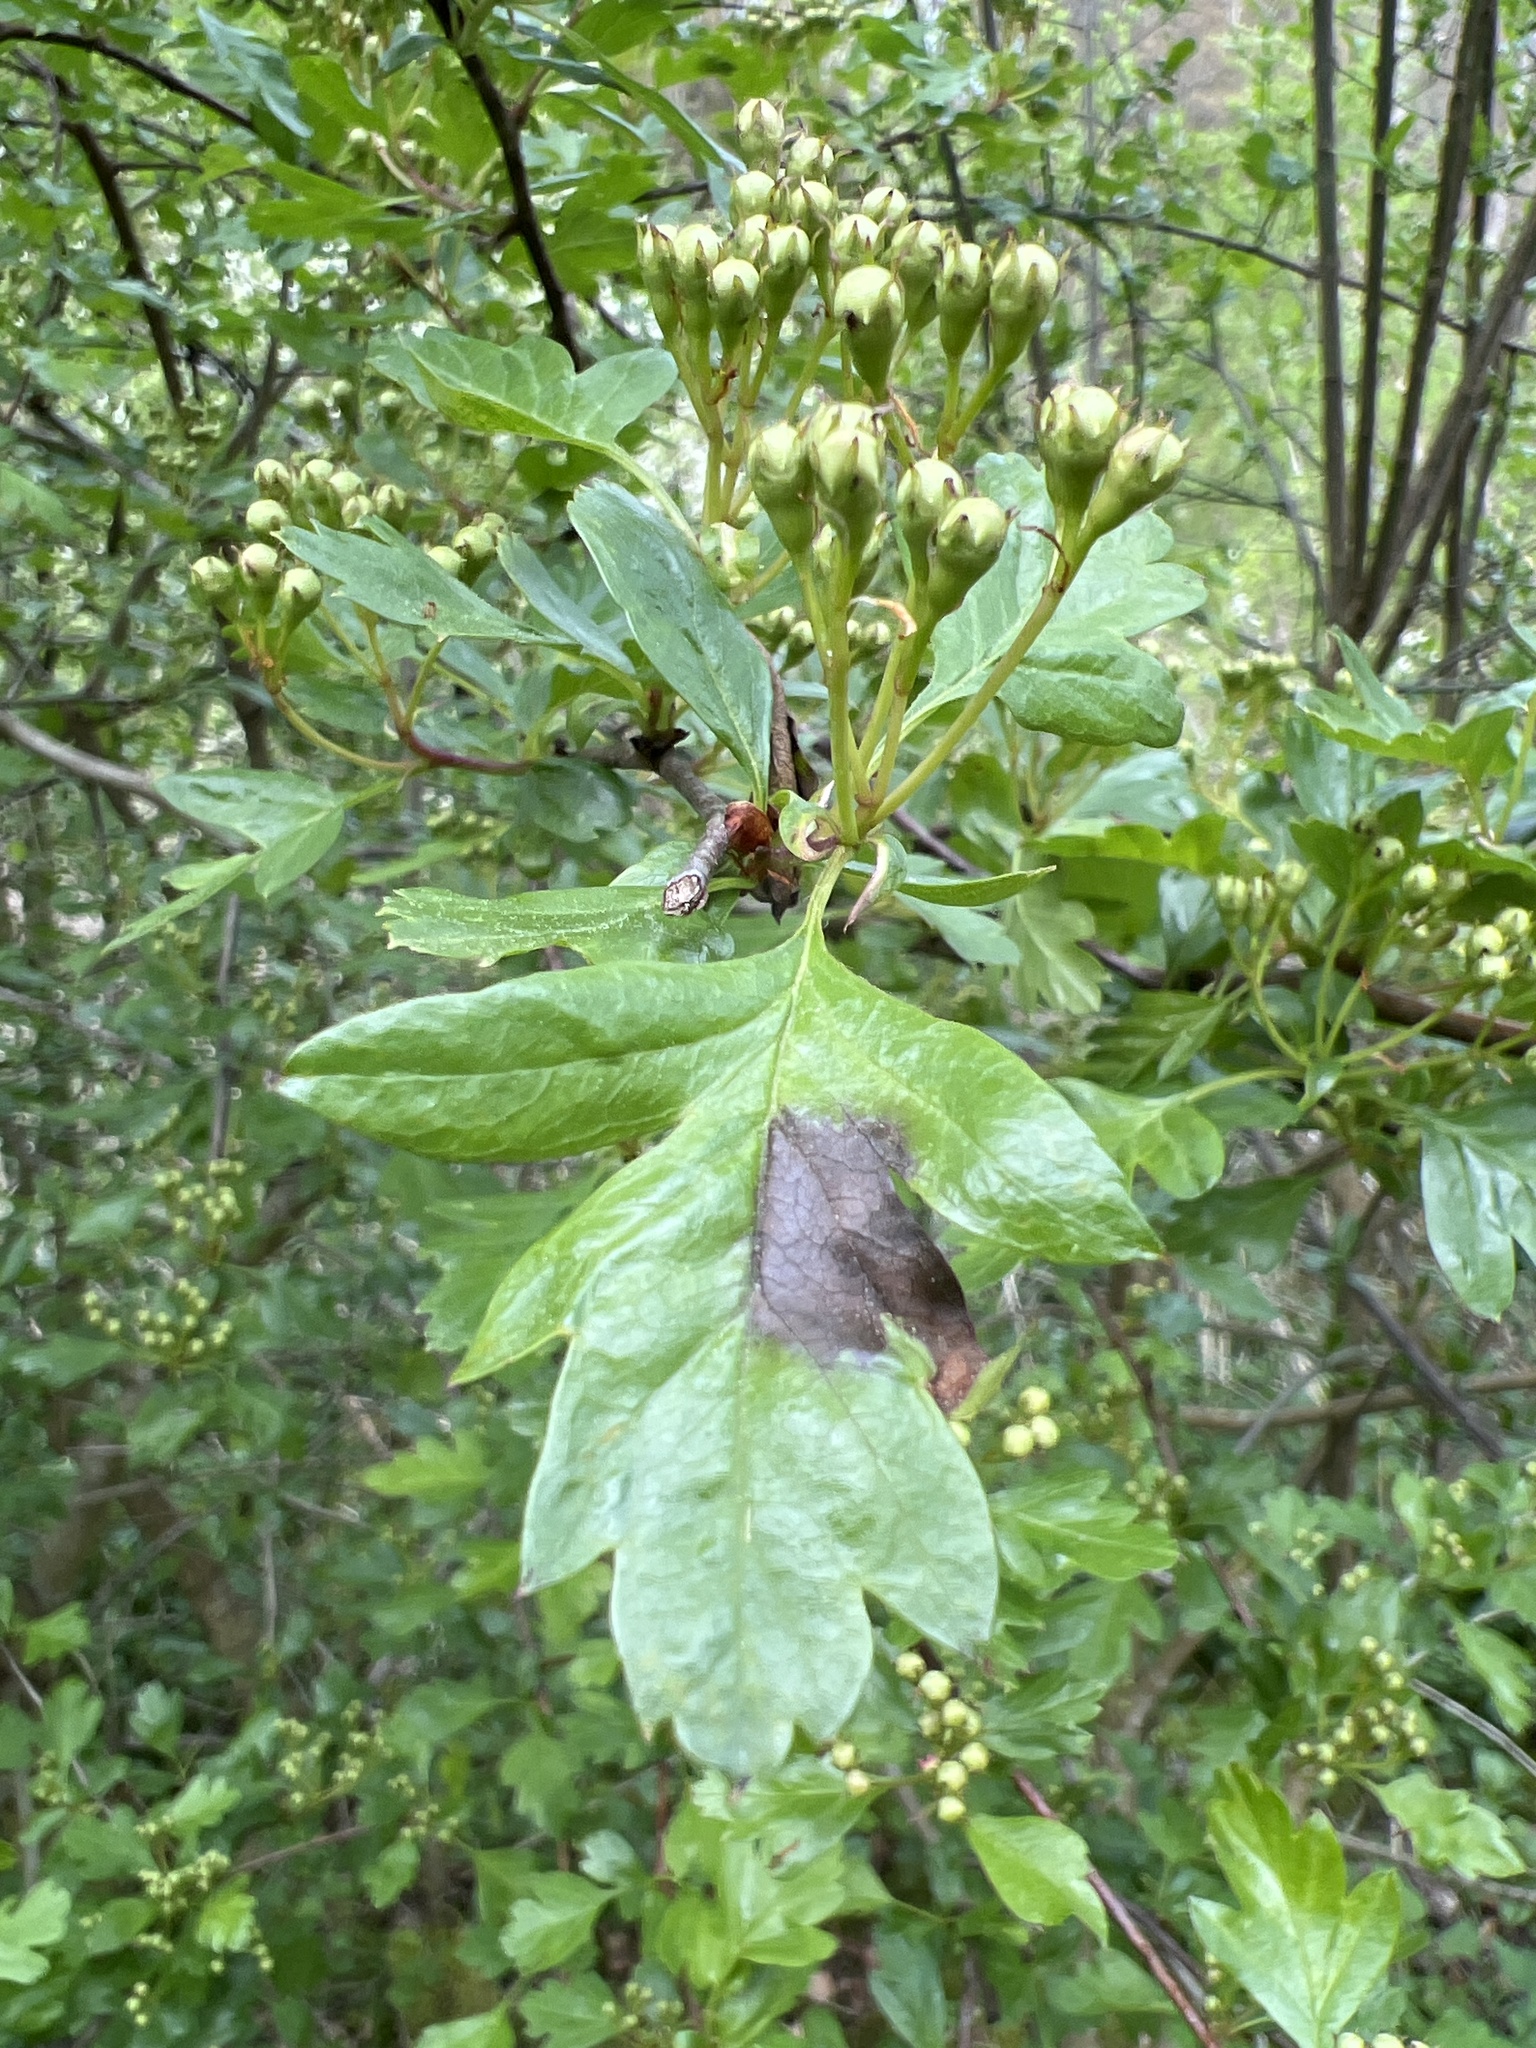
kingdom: Plantae
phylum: Tracheophyta
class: Magnoliopsida
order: Rosales
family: Rosaceae
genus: Crataegus
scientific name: Crataegus monogyna
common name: Hawthorn
